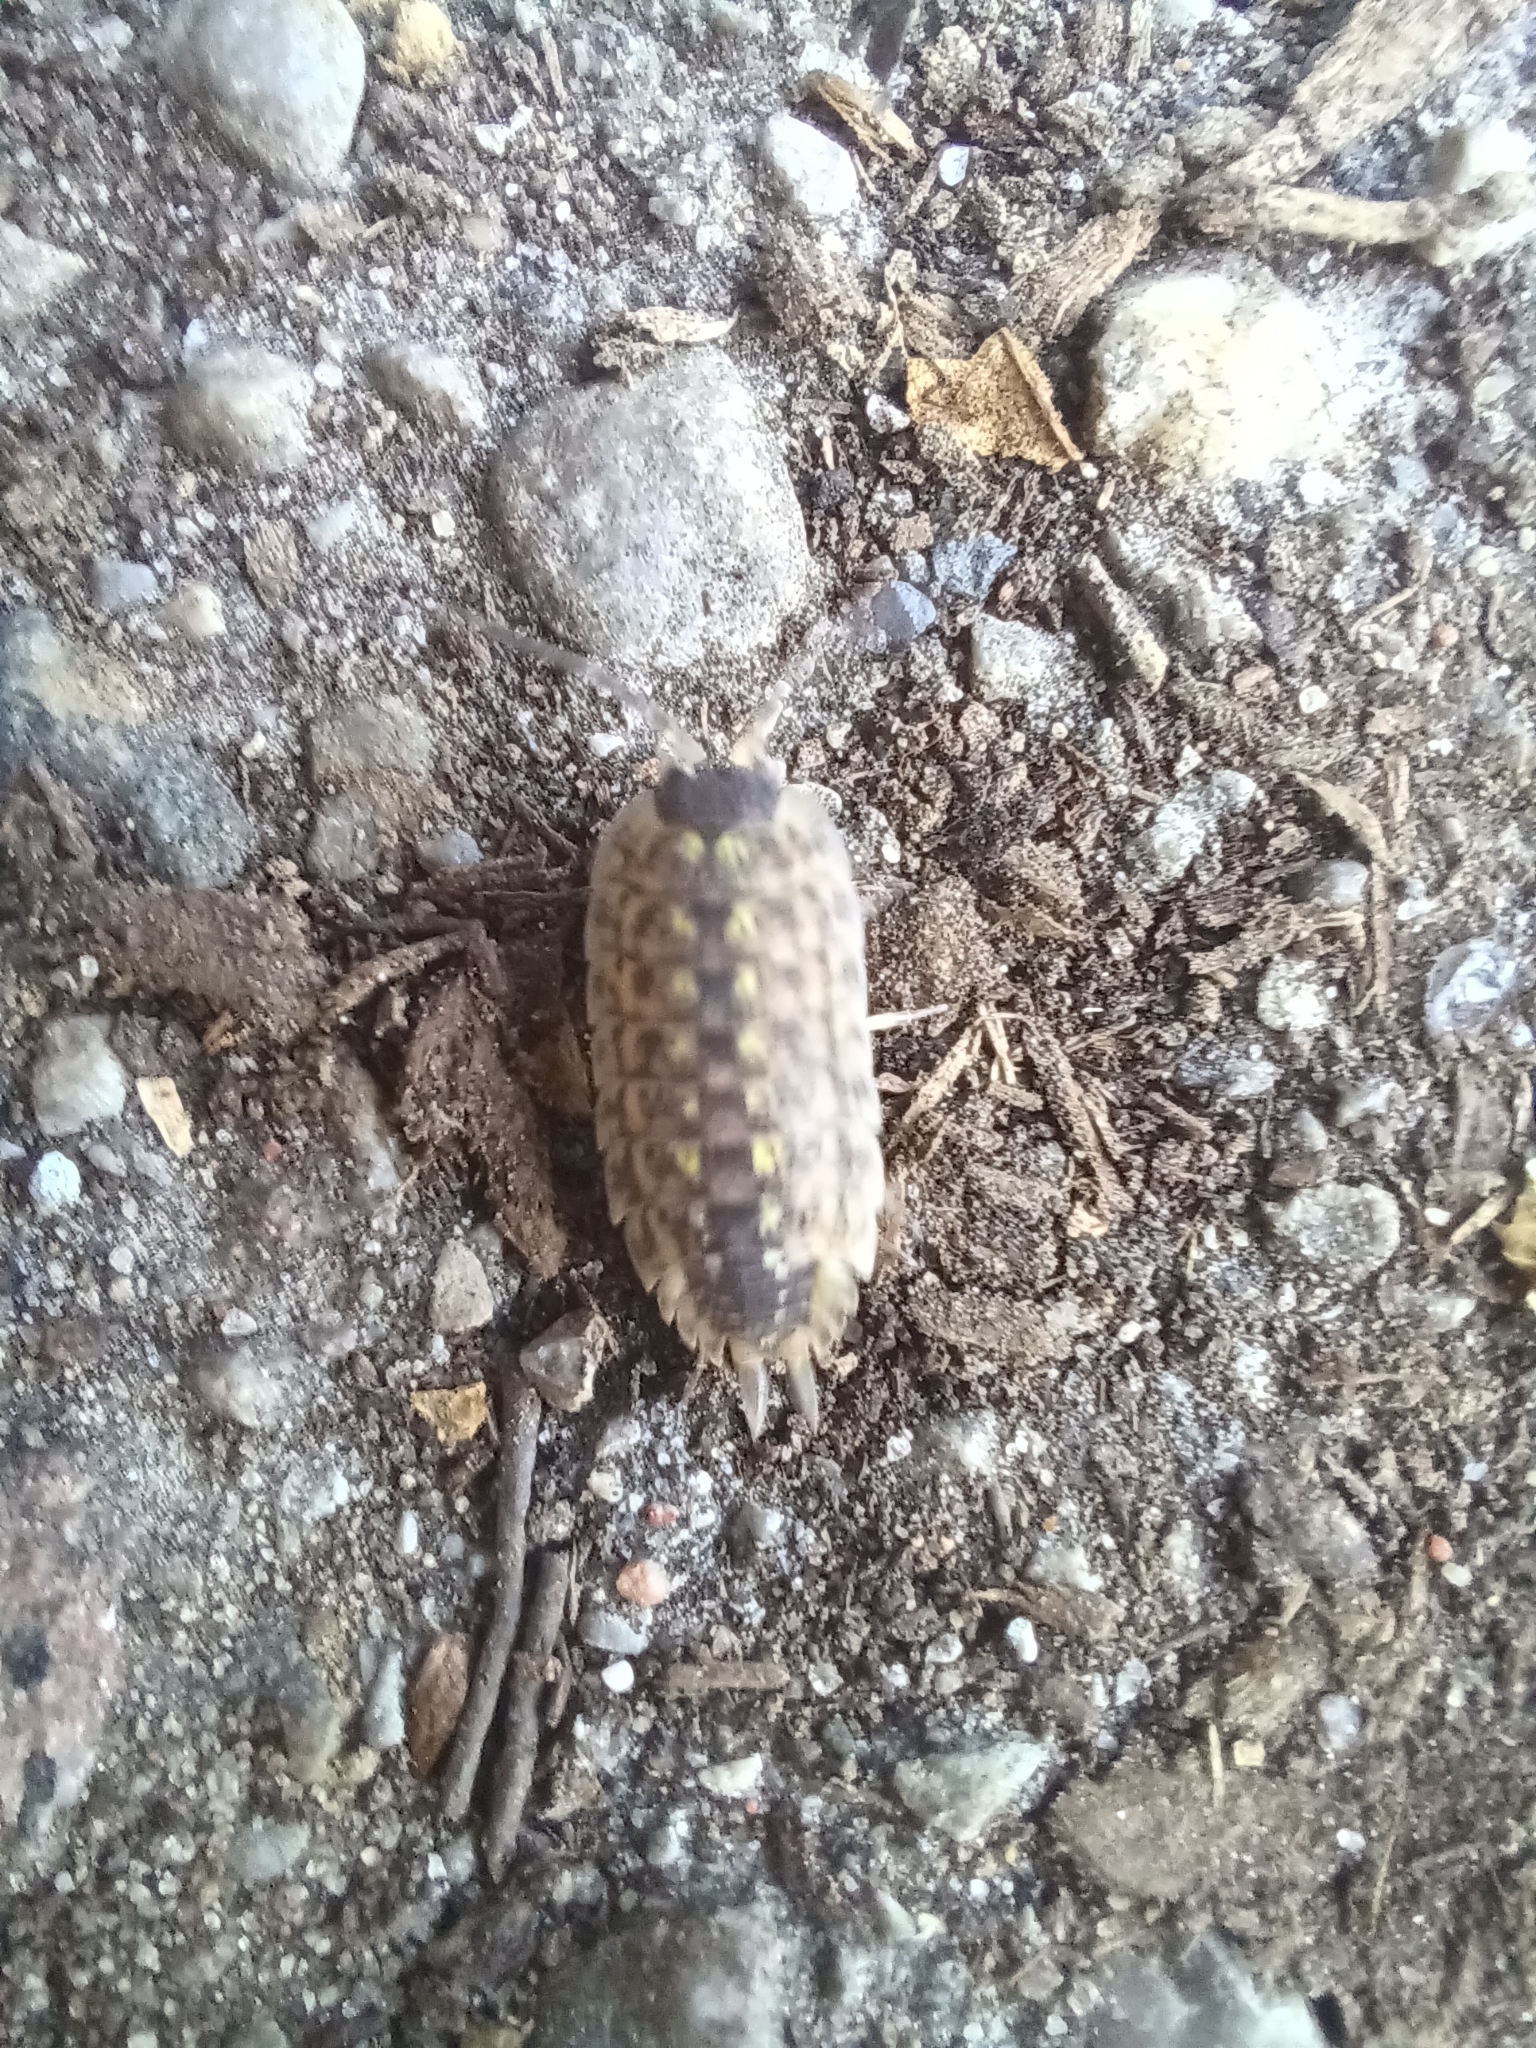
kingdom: Animalia
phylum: Arthropoda
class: Malacostraca
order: Isopoda
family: Porcellionidae
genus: Porcellio
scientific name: Porcellio spinicornis
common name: Painted woodlouse
